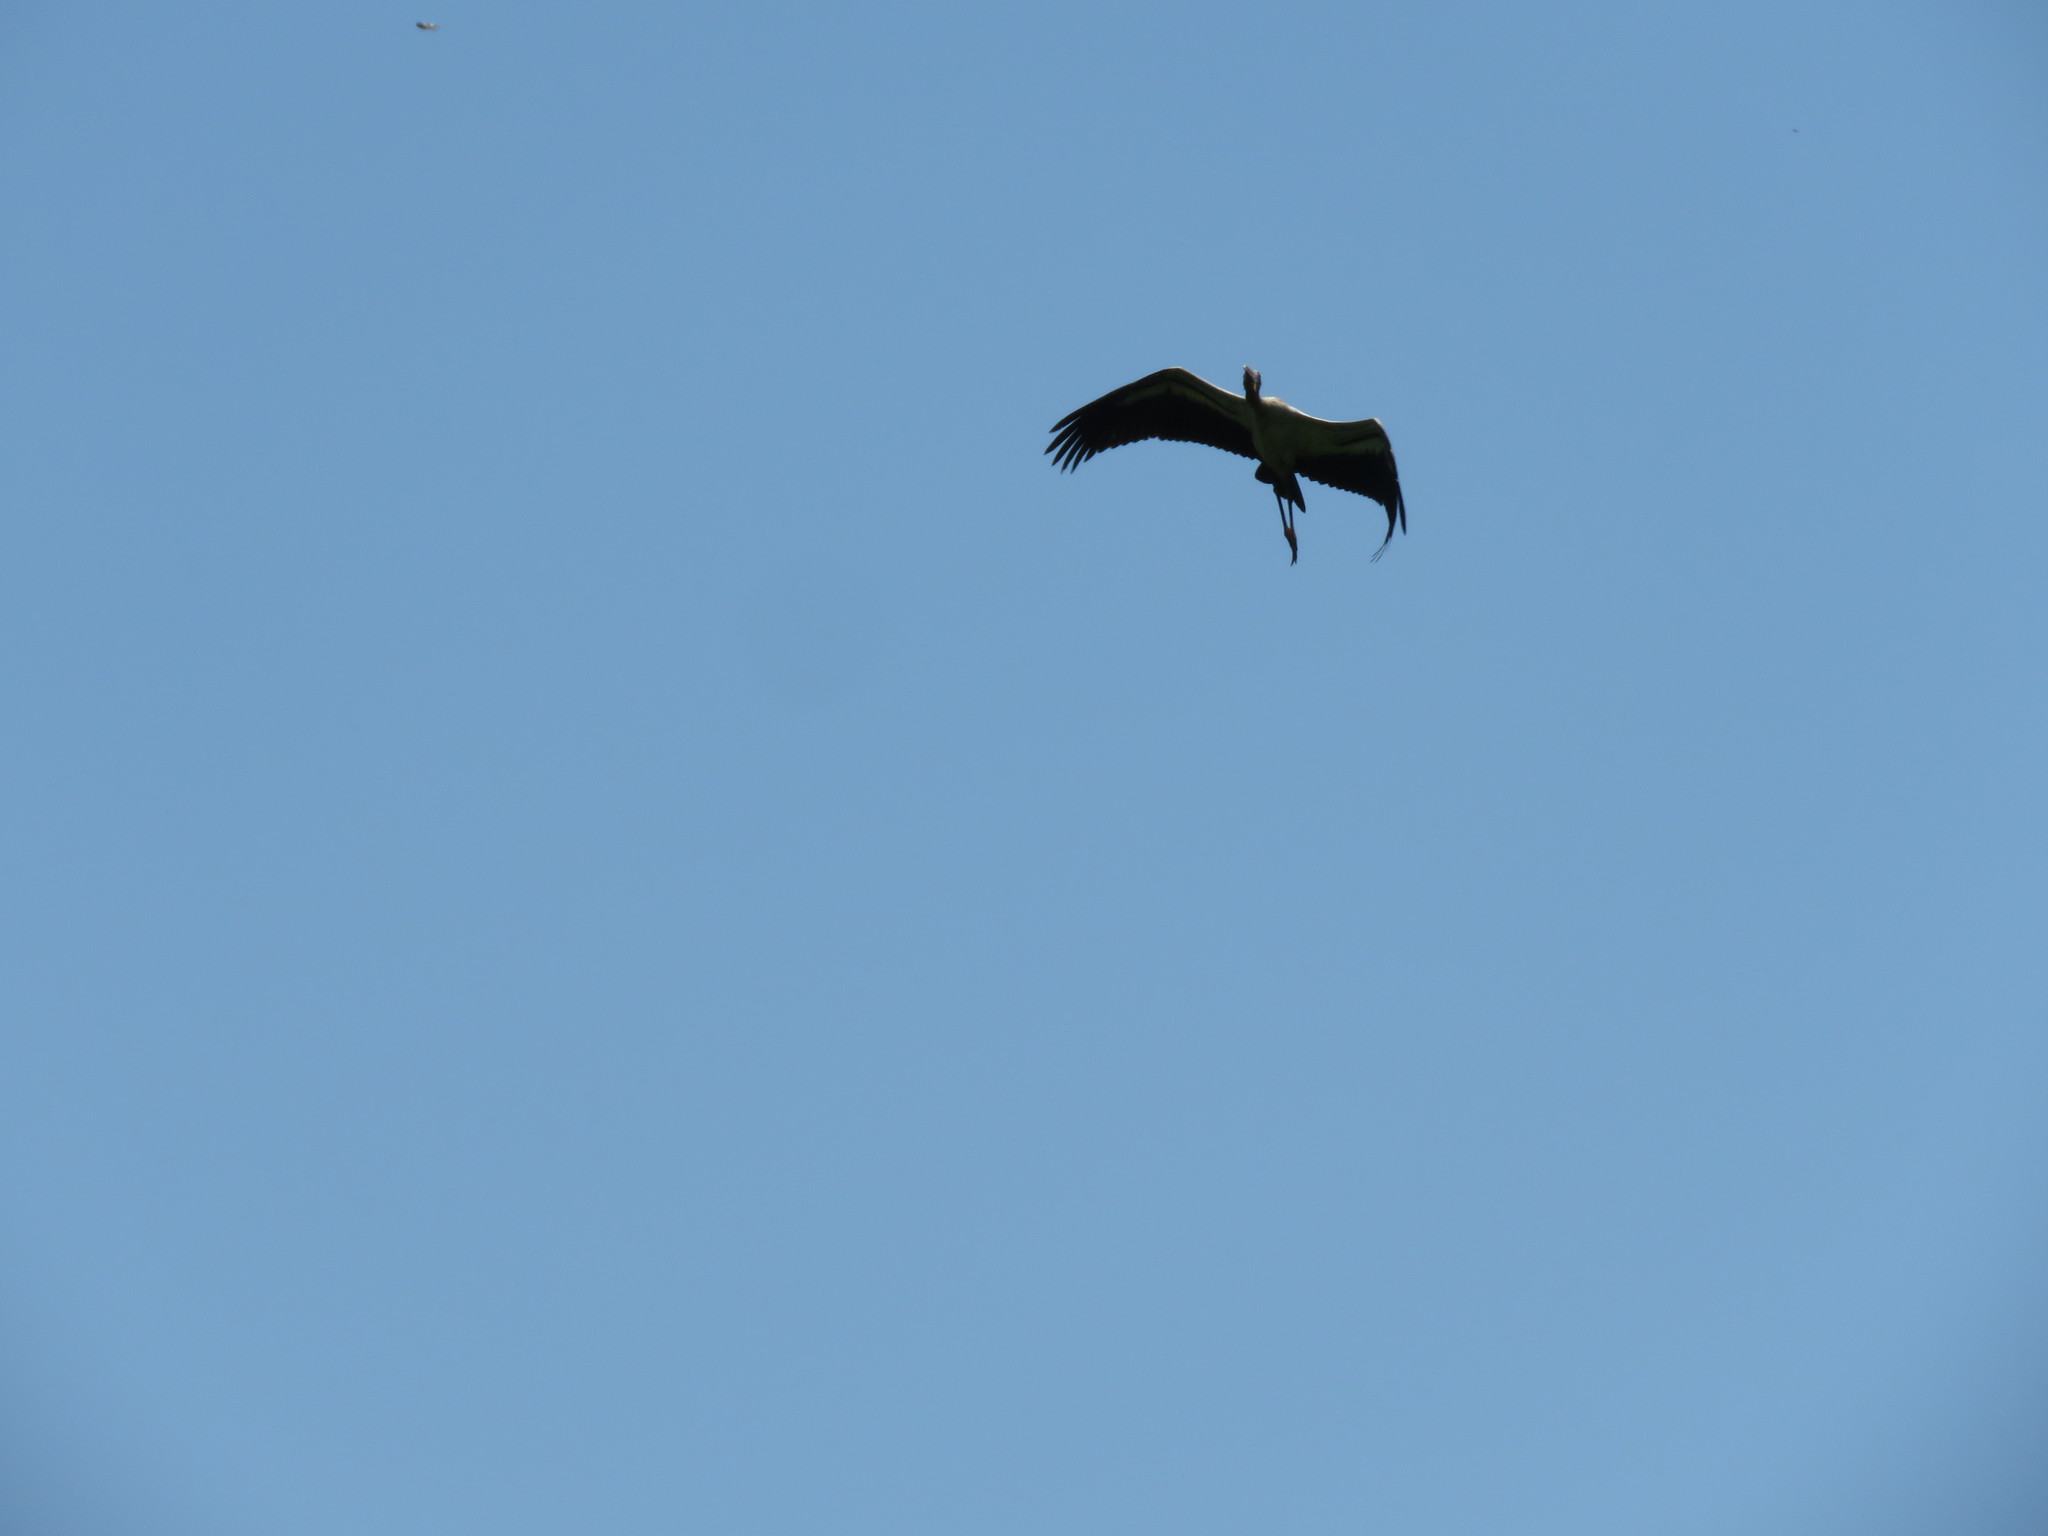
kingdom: Animalia
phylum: Chordata
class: Aves
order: Ciconiiformes
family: Ciconiidae
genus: Mycteria
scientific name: Mycteria americana
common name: Wood stork
